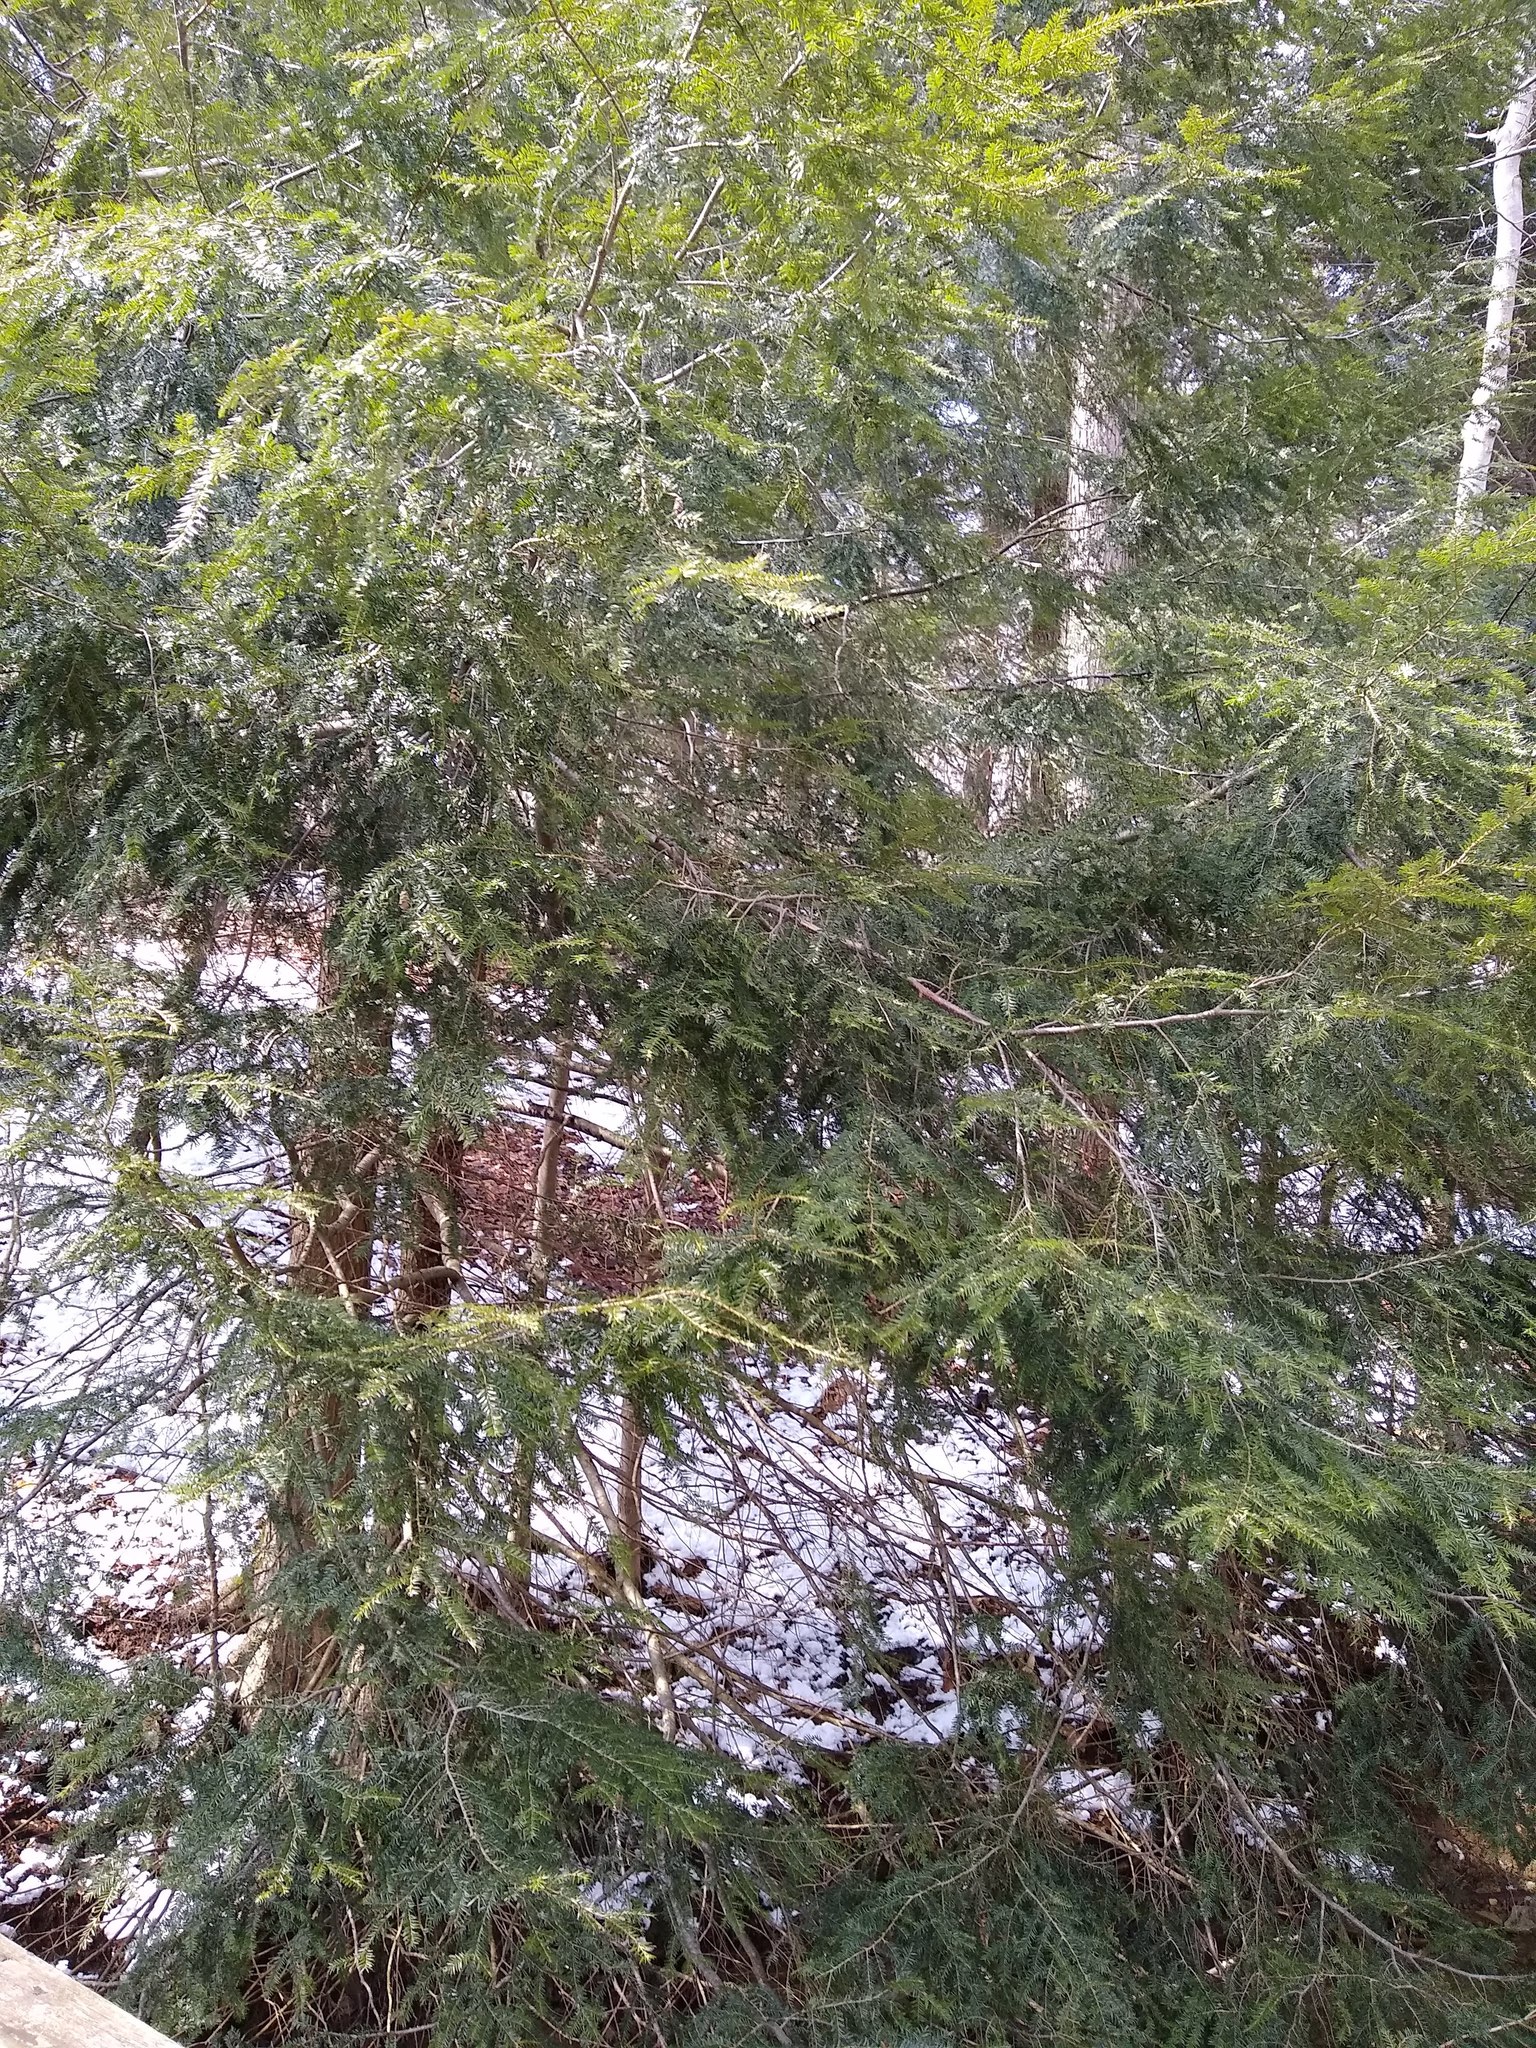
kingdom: Plantae
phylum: Tracheophyta
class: Pinopsida
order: Pinales
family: Pinaceae
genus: Tsuga
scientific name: Tsuga canadensis
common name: Eastern hemlock
